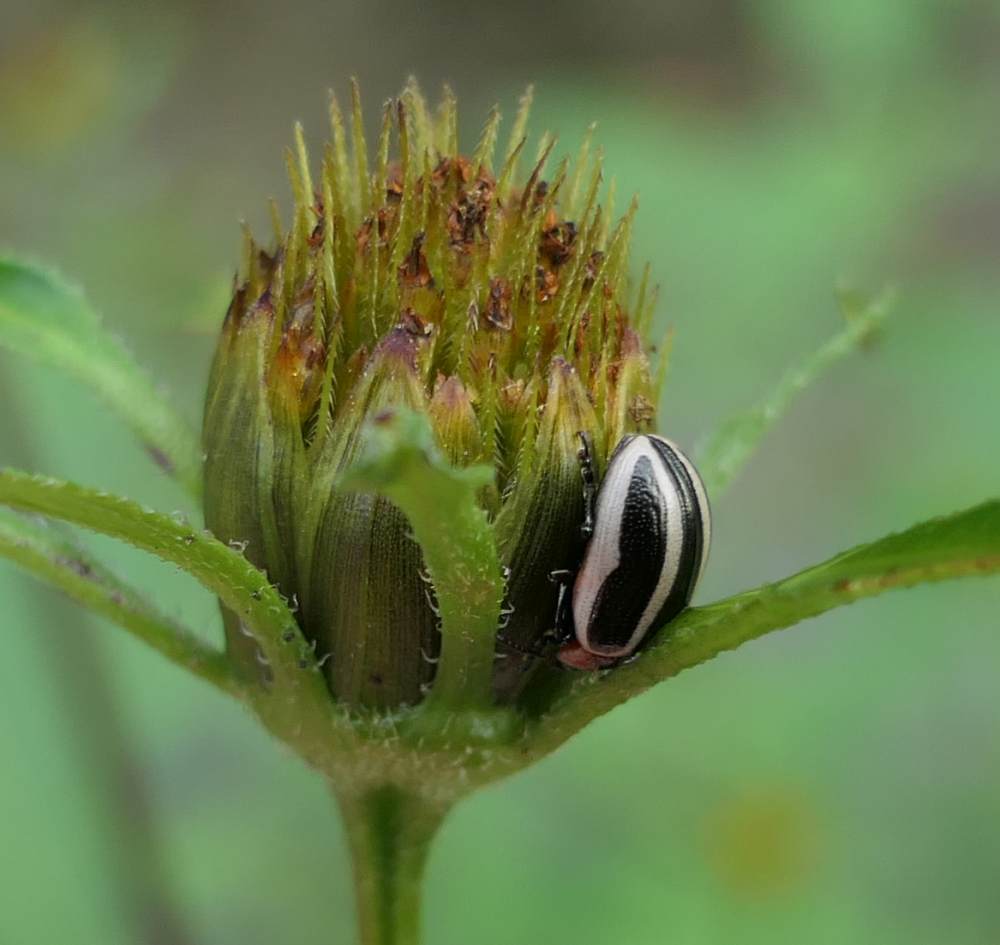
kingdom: Animalia
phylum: Arthropoda
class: Insecta
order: Coleoptera
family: Chrysomelidae
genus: Calligrapha
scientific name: Calligrapha californica
